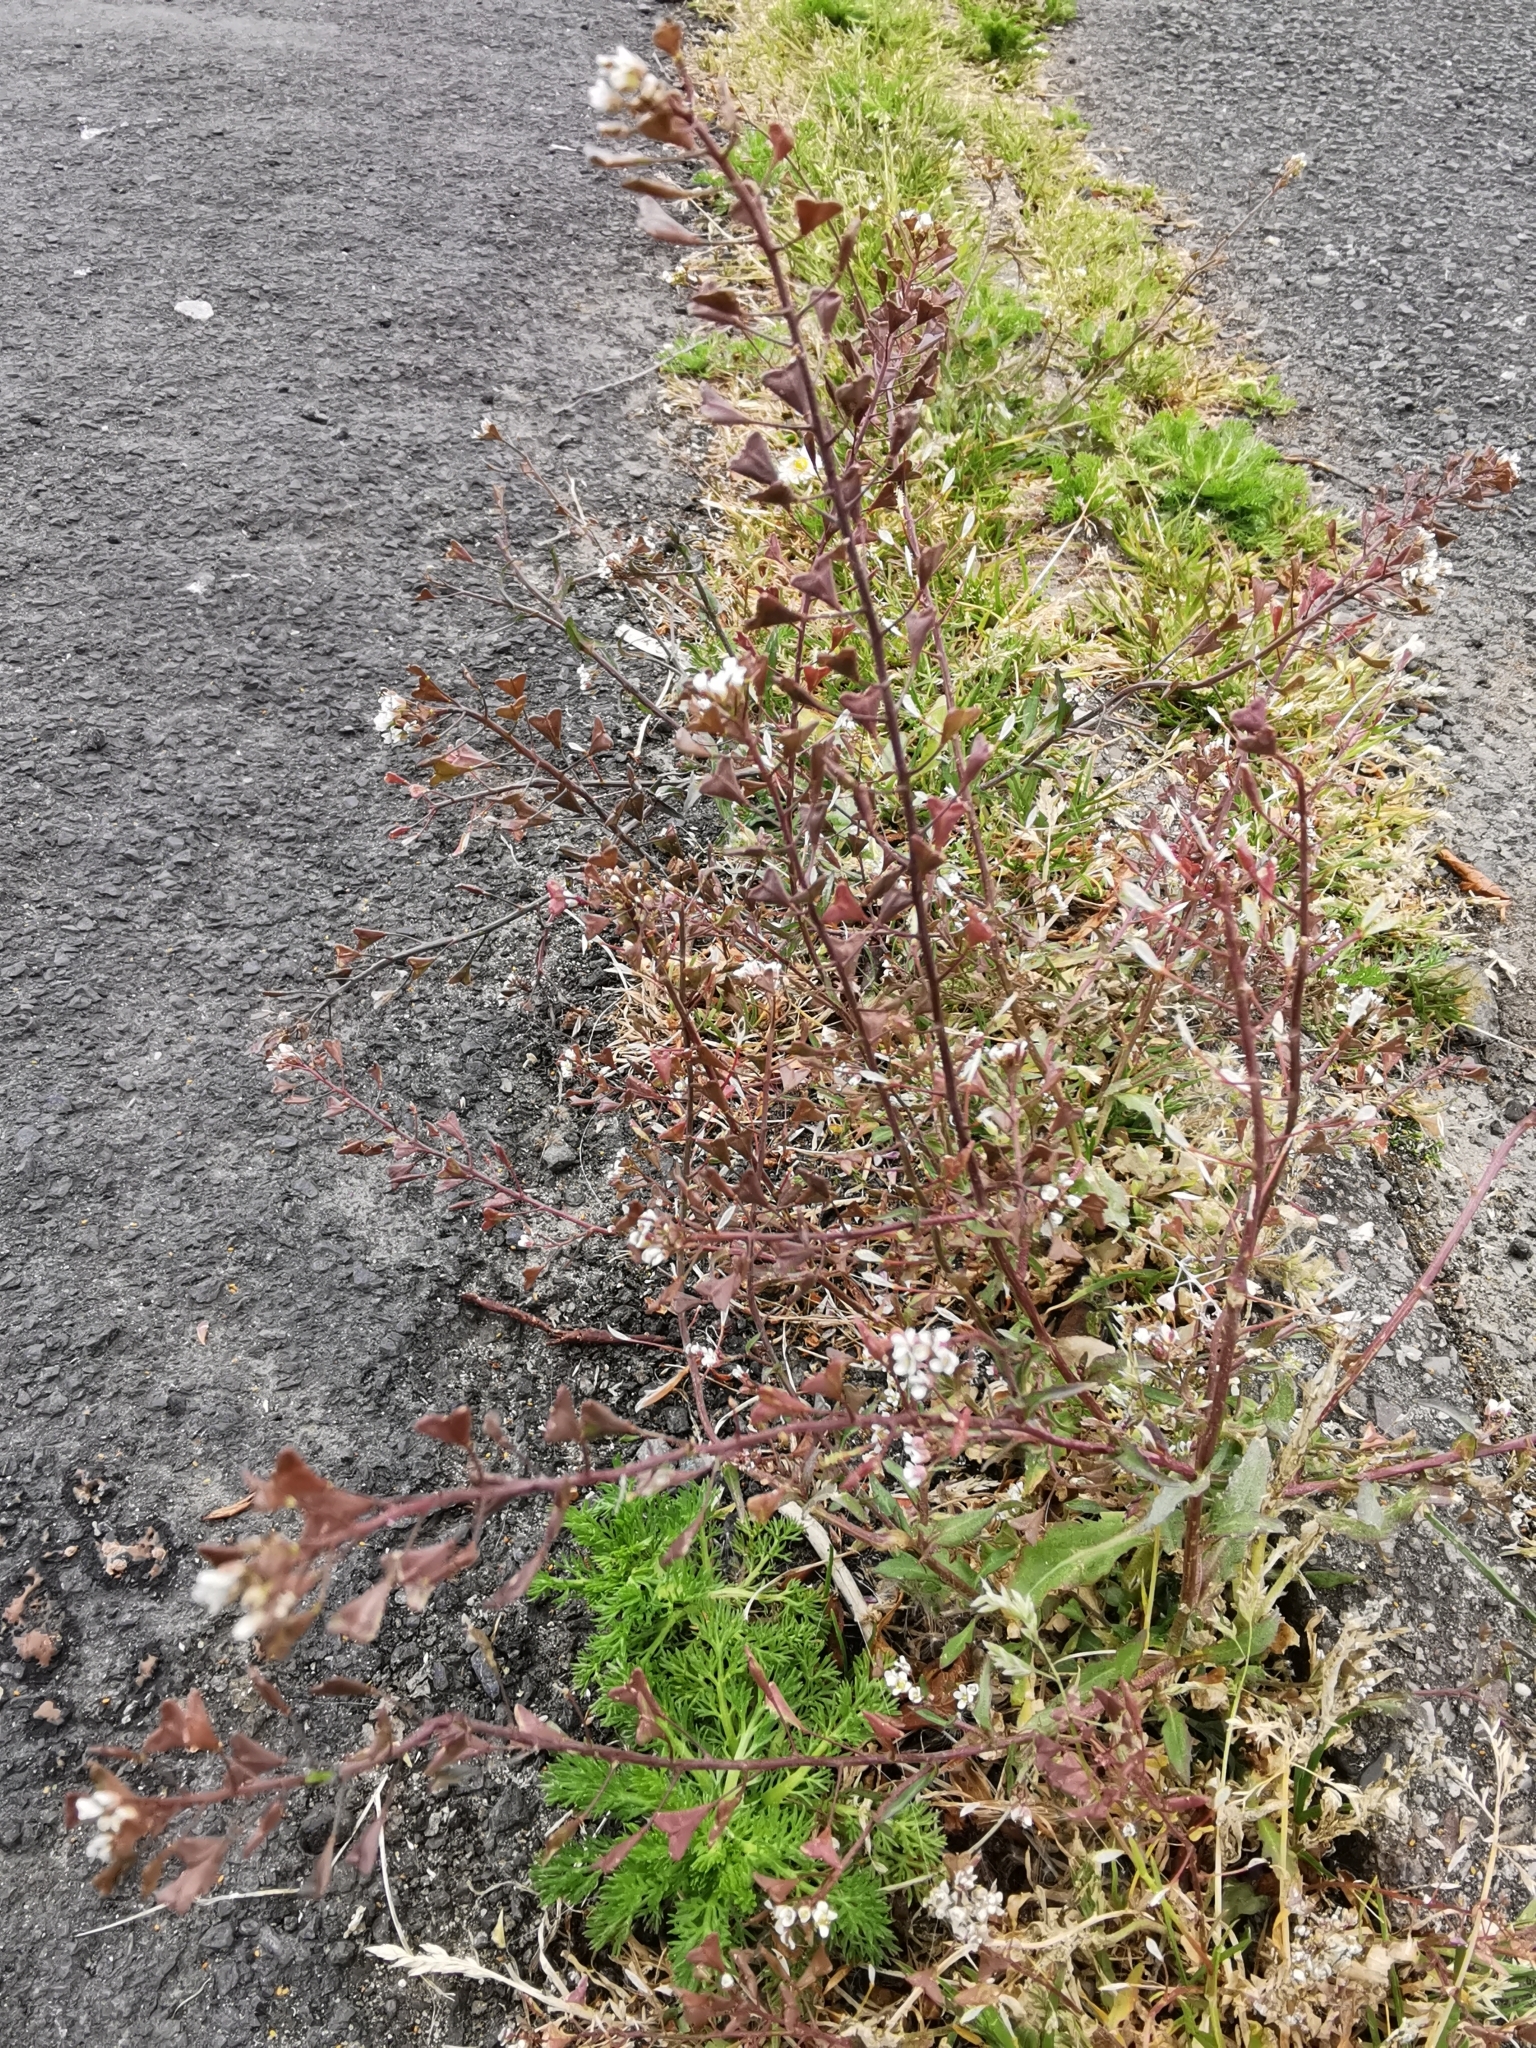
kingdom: Plantae
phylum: Tracheophyta
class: Magnoliopsida
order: Brassicales
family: Brassicaceae
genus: Capsella
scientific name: Capsella bursa-pastoris
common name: Shepherd's purse
